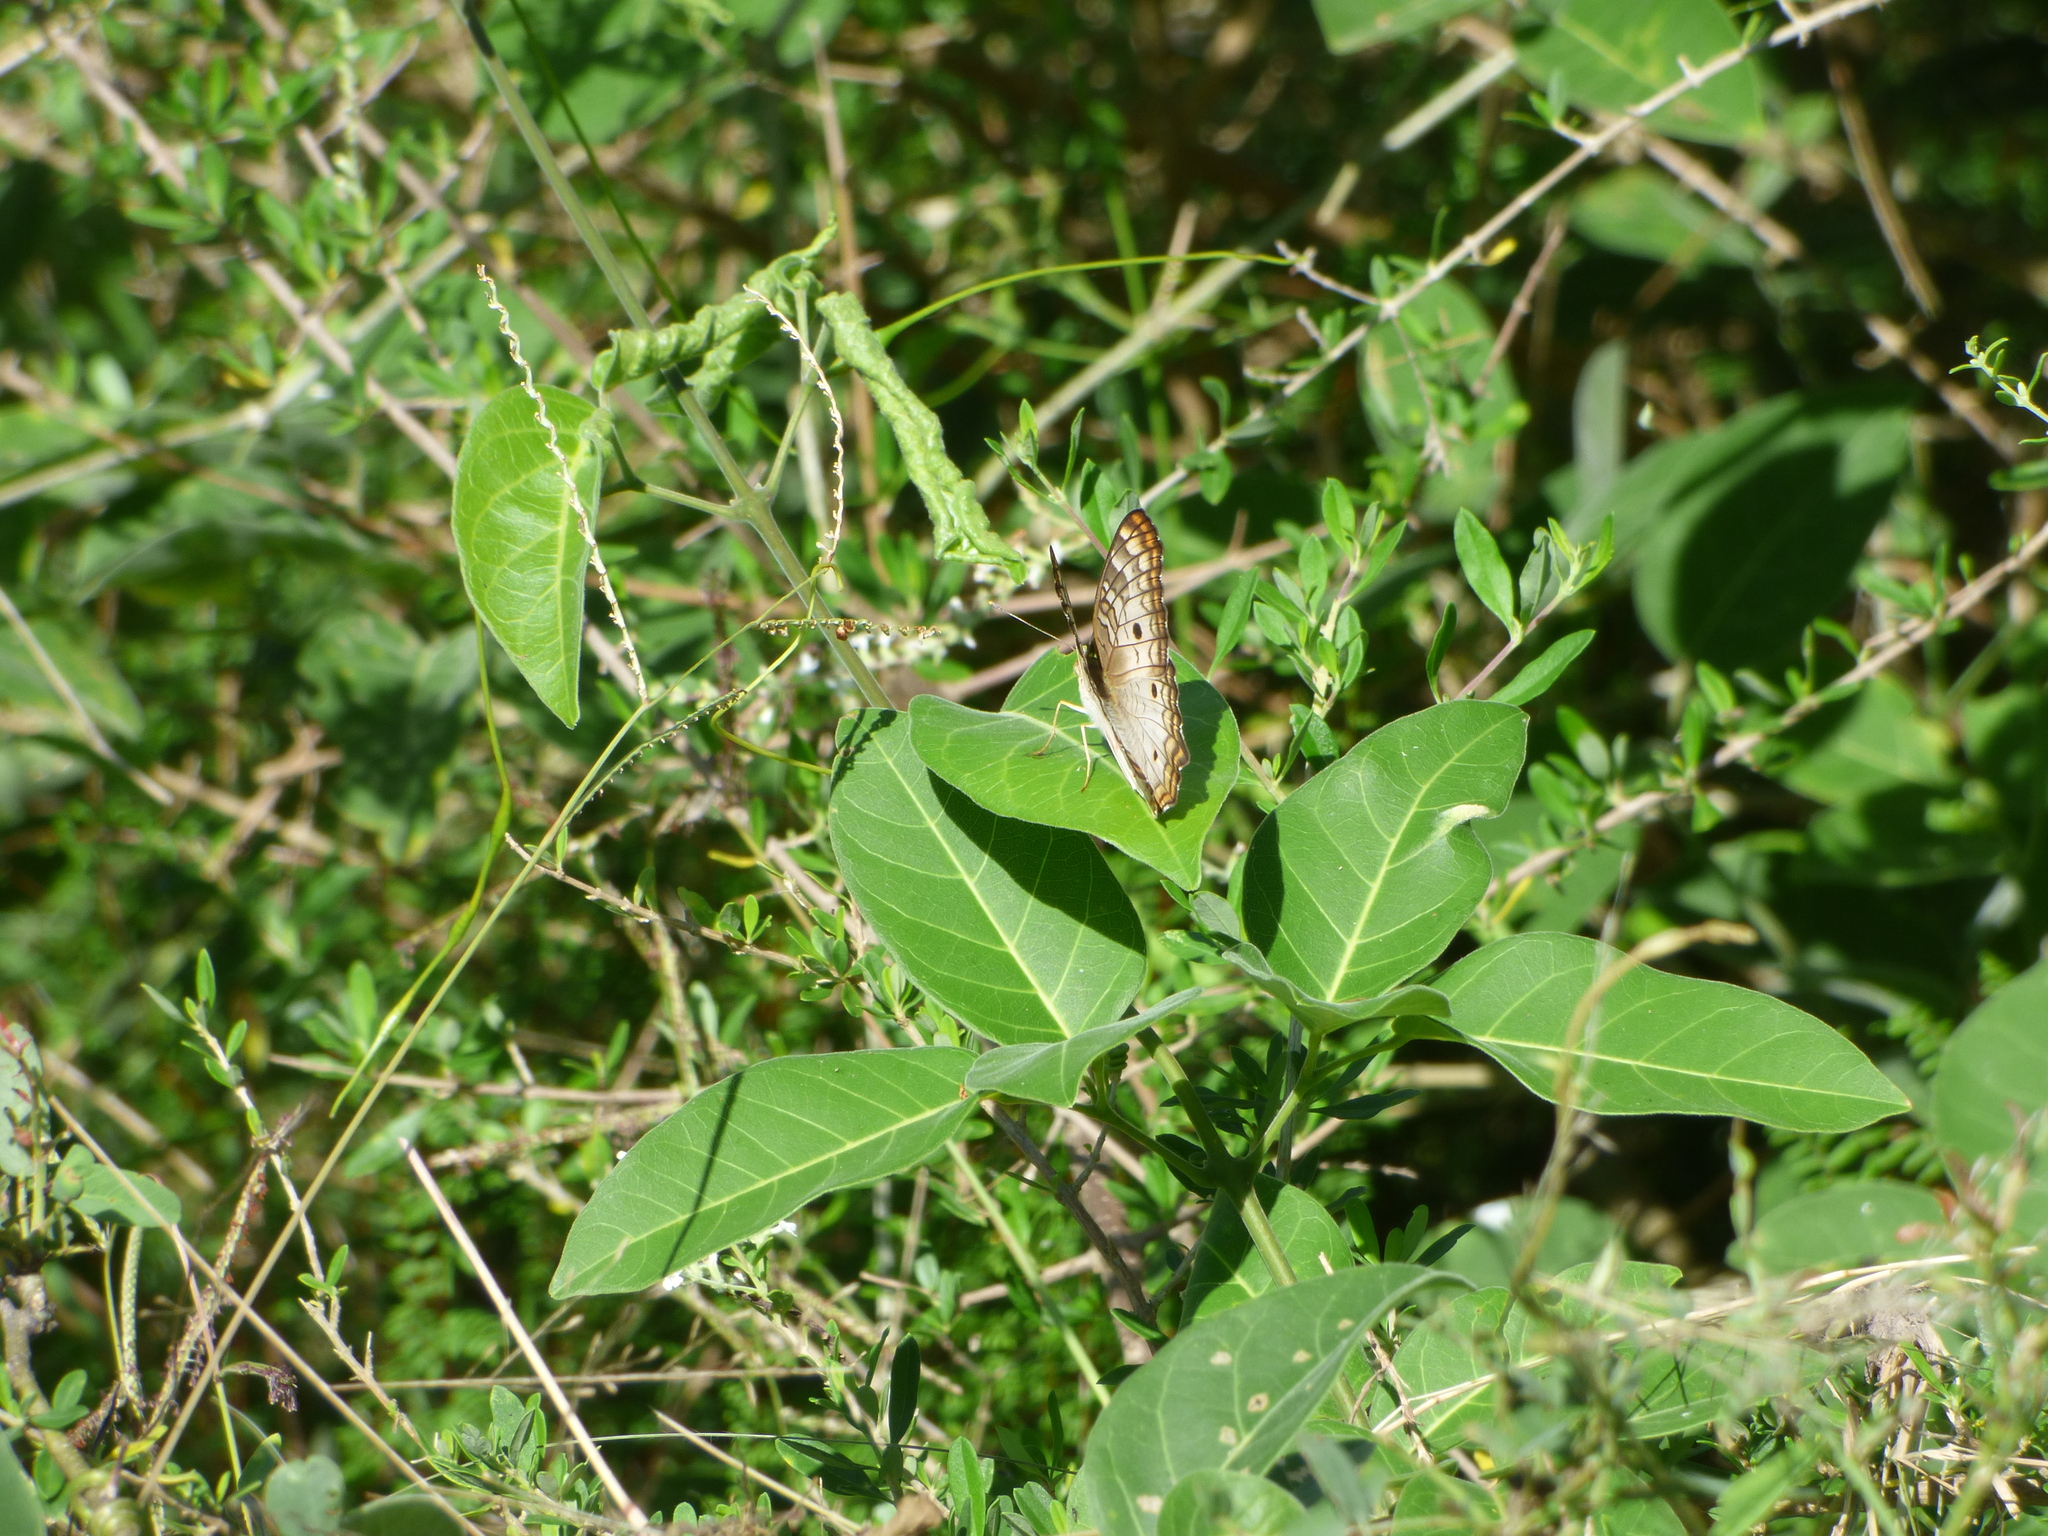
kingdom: Animalia
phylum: Arthropoda
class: Insecta
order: Lepidoptera
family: Nymphalidae
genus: Anartia
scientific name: Anartia jatrophae
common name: White peacock
